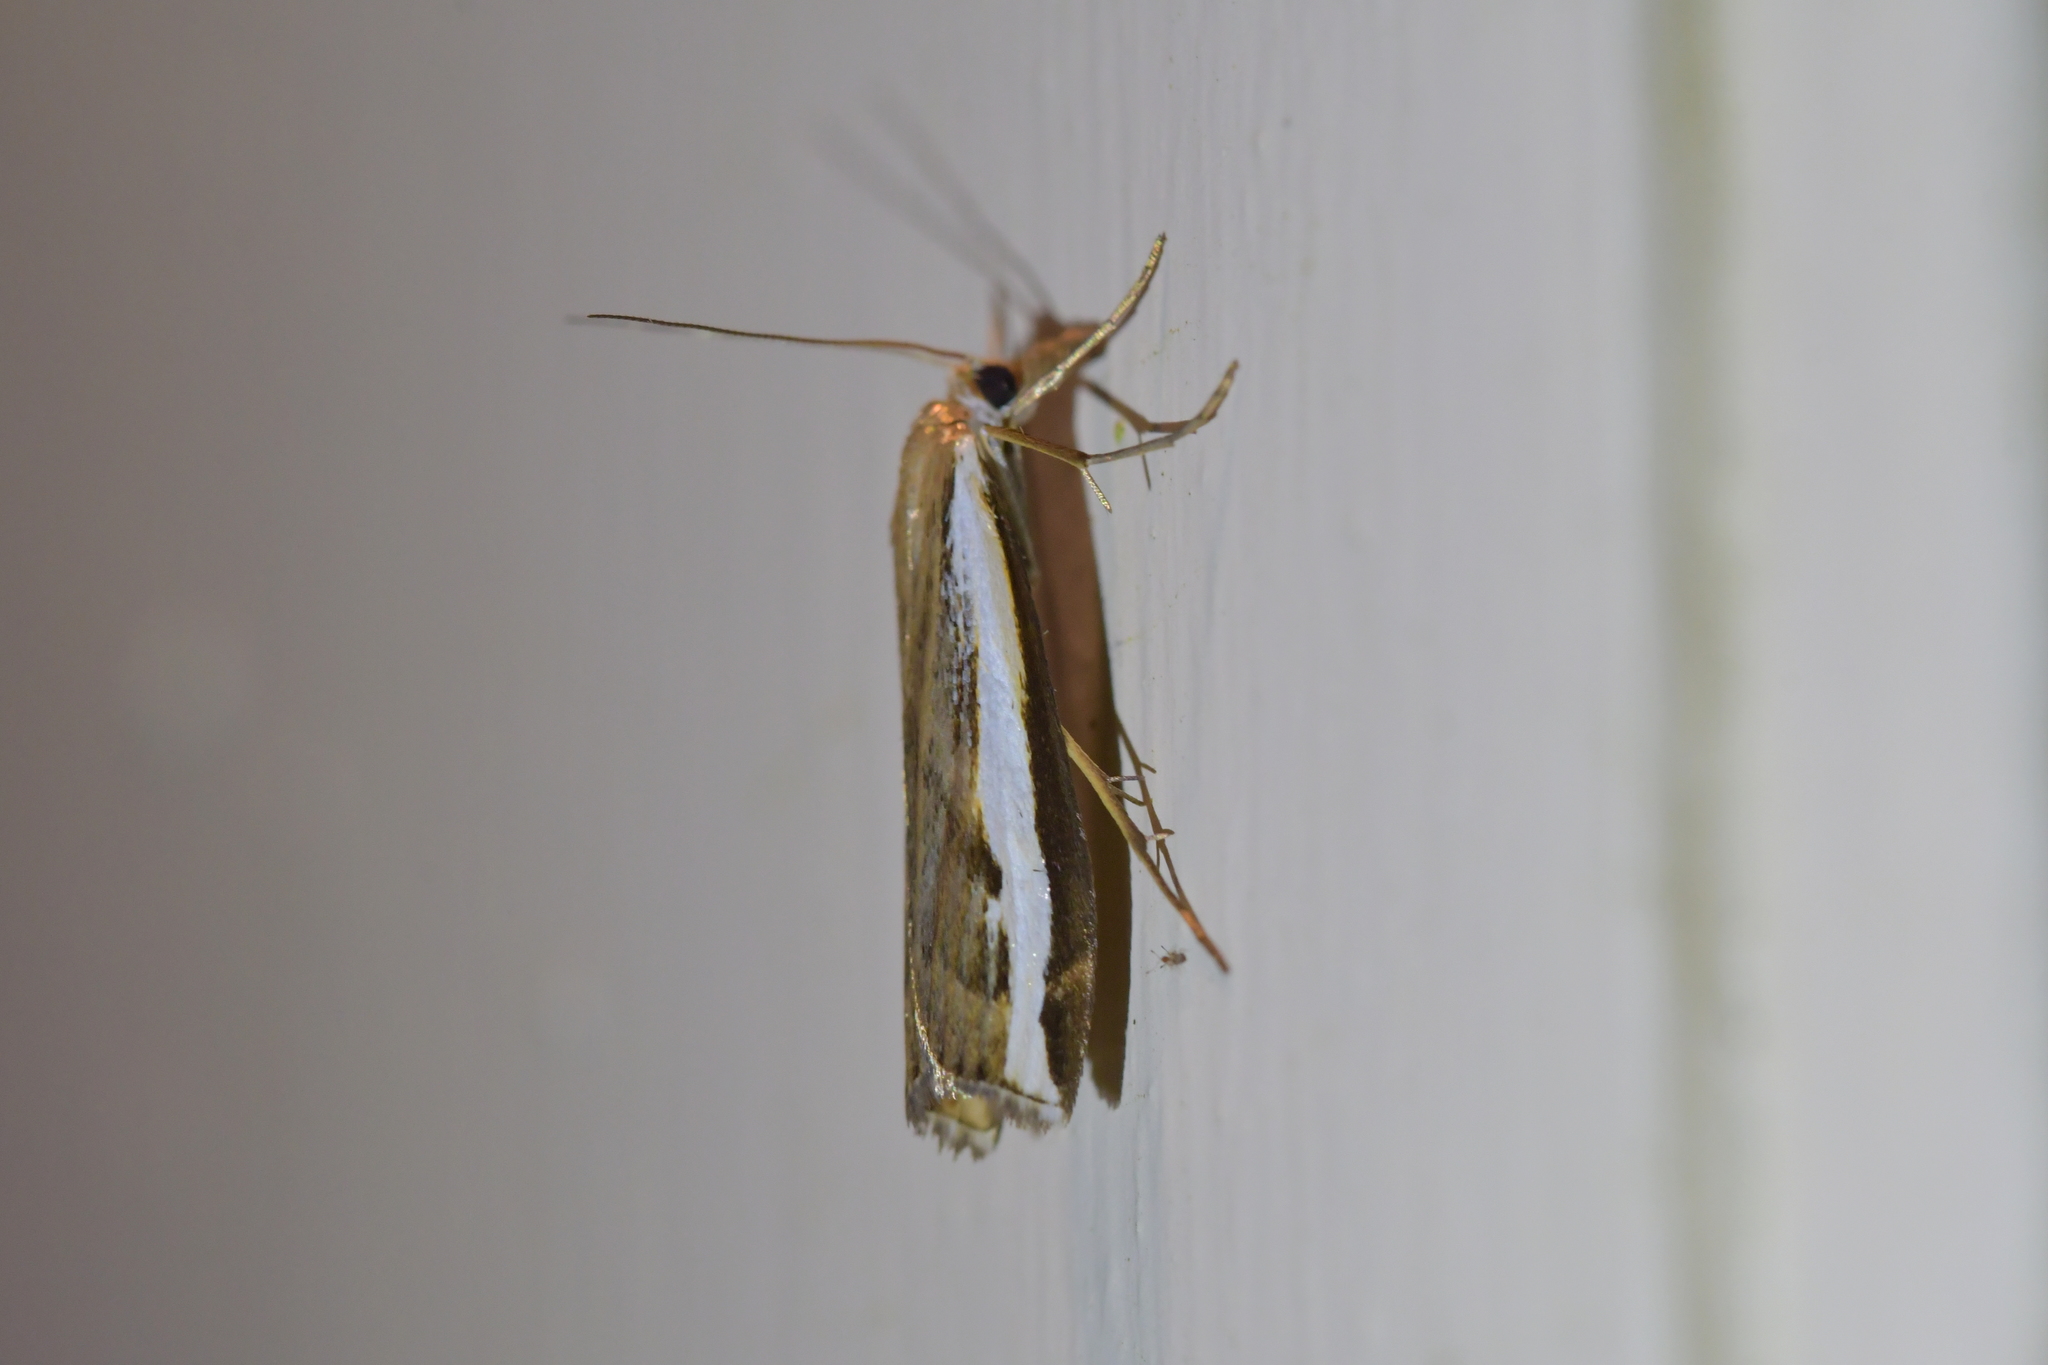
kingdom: Animalia
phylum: Arthropoda
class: Insecta
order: Lepidoptera
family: Crambidae
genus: Orocrambus
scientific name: Orocrambus flexuosellus
